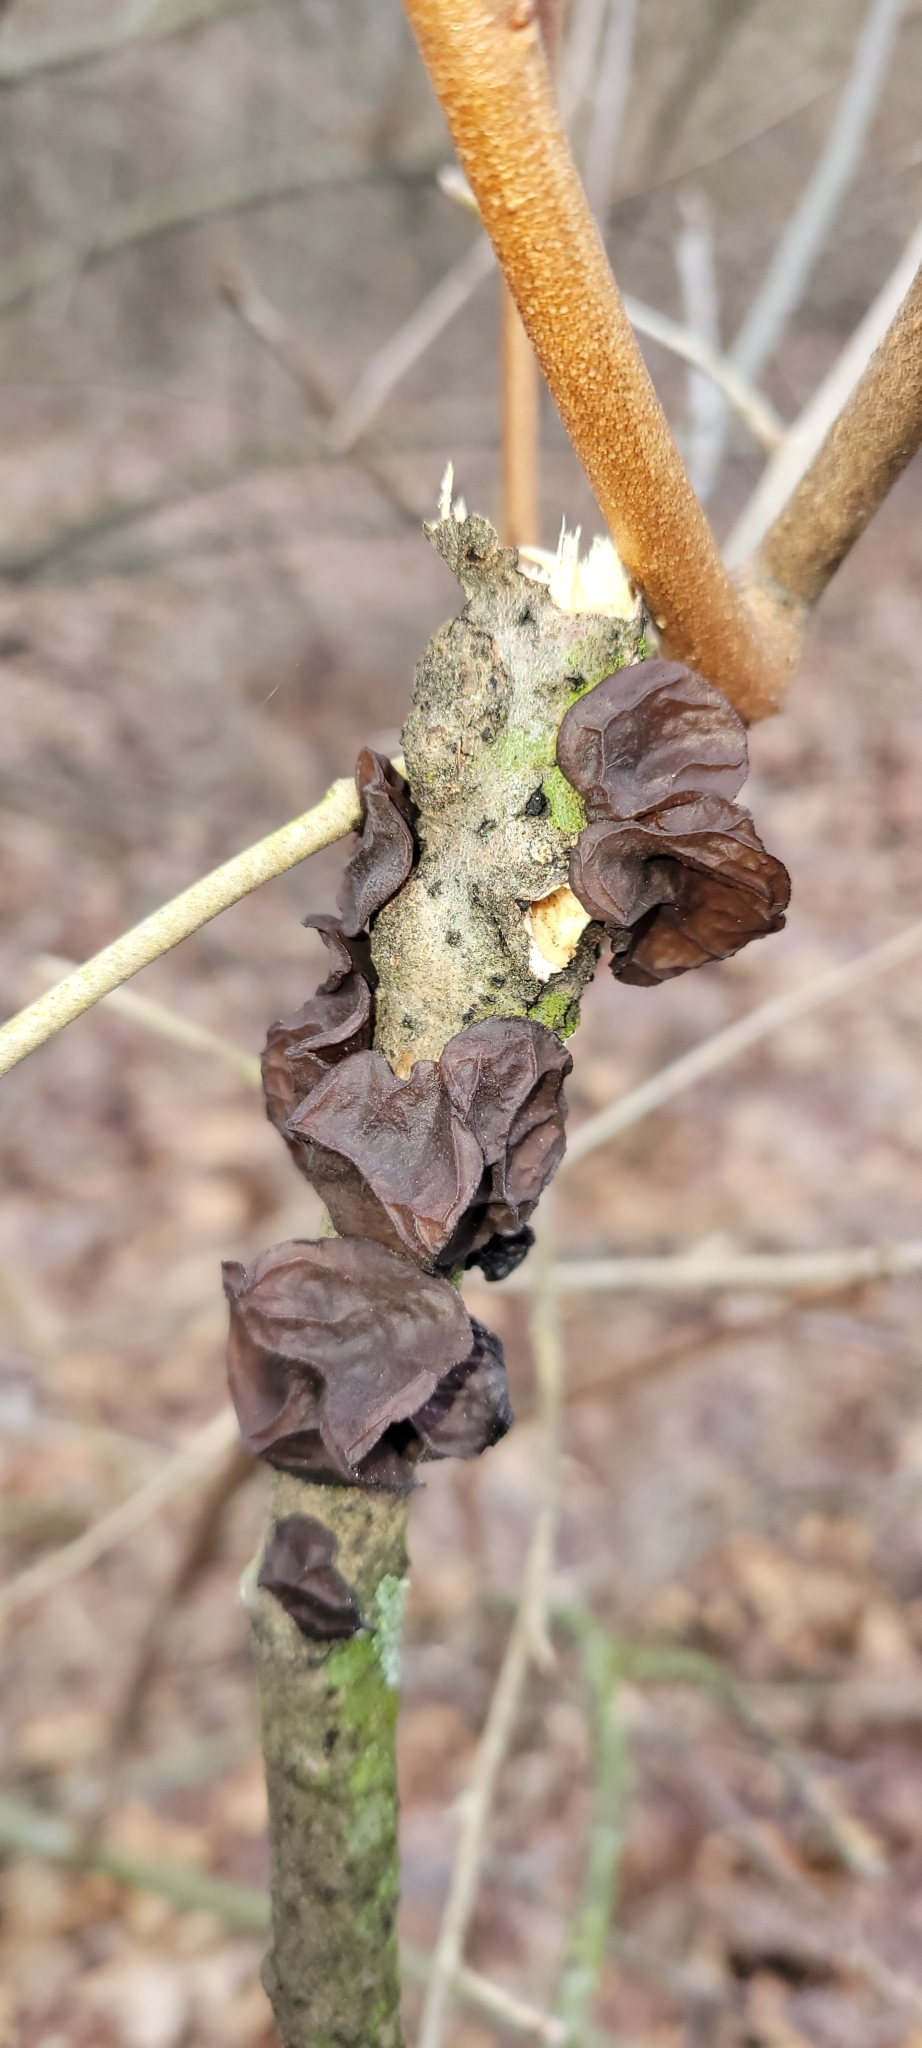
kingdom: Fungi
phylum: Basidiomycota
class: Agaricomycetes
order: Auriculariales
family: Auriculariaceae
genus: Exidia
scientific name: Exidia
